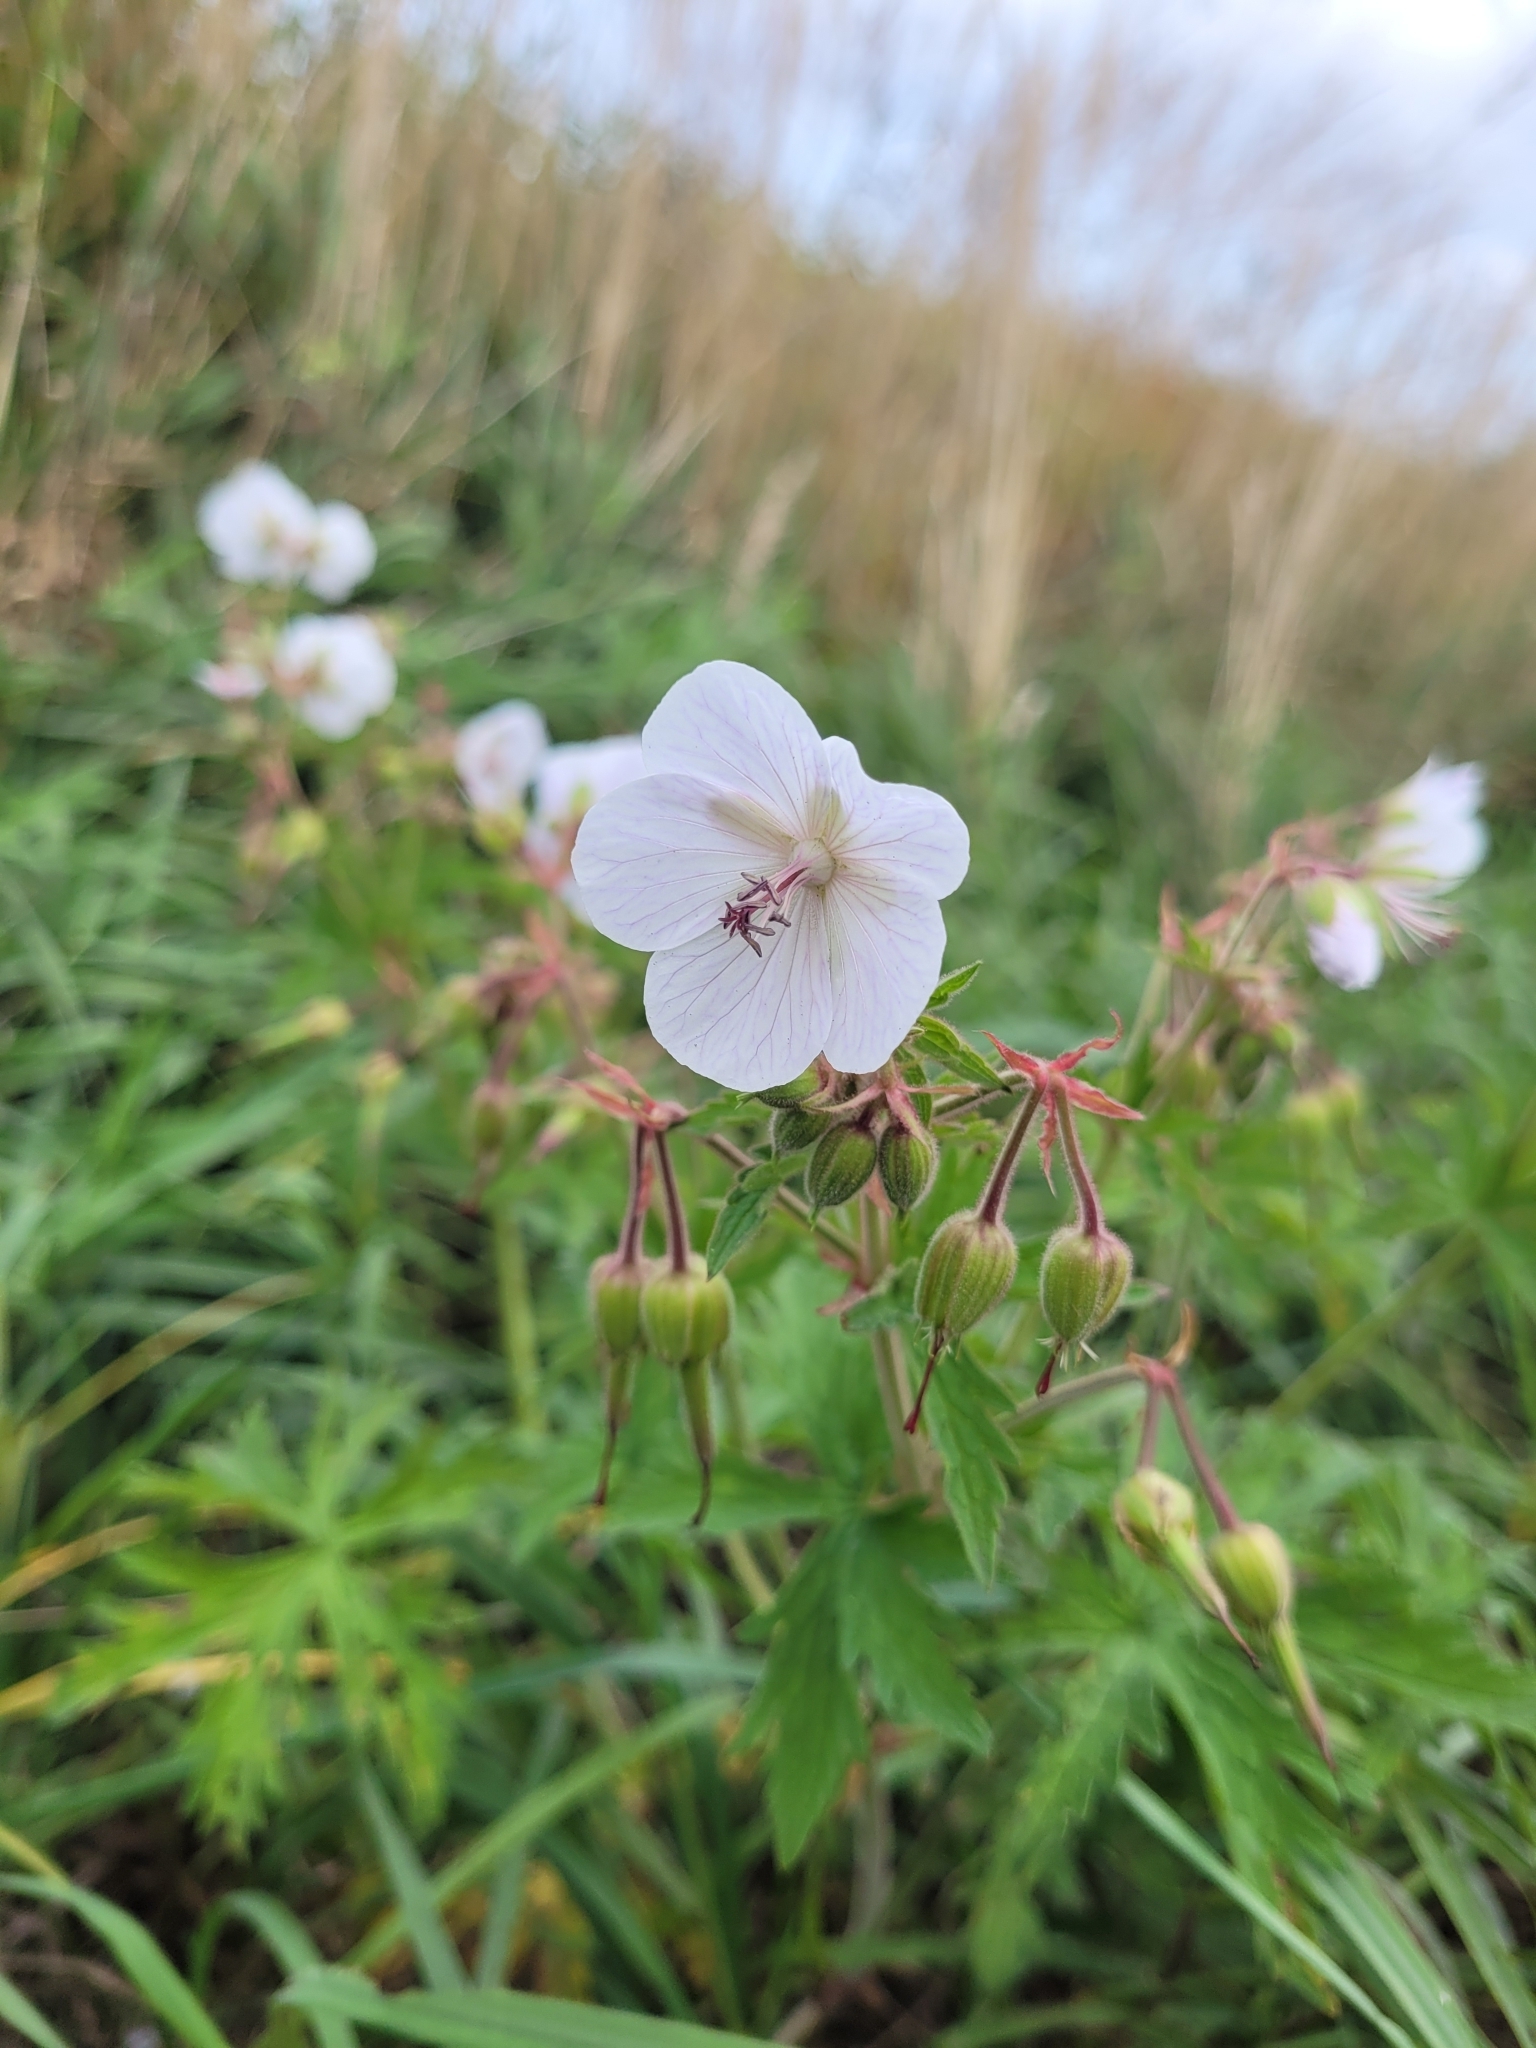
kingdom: Plantae
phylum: Tracheophyta
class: Magnoliopsida
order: Geraniales
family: Geraniaceae
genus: Geranium
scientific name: Geranium pratense
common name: Meadow crane's-bill
